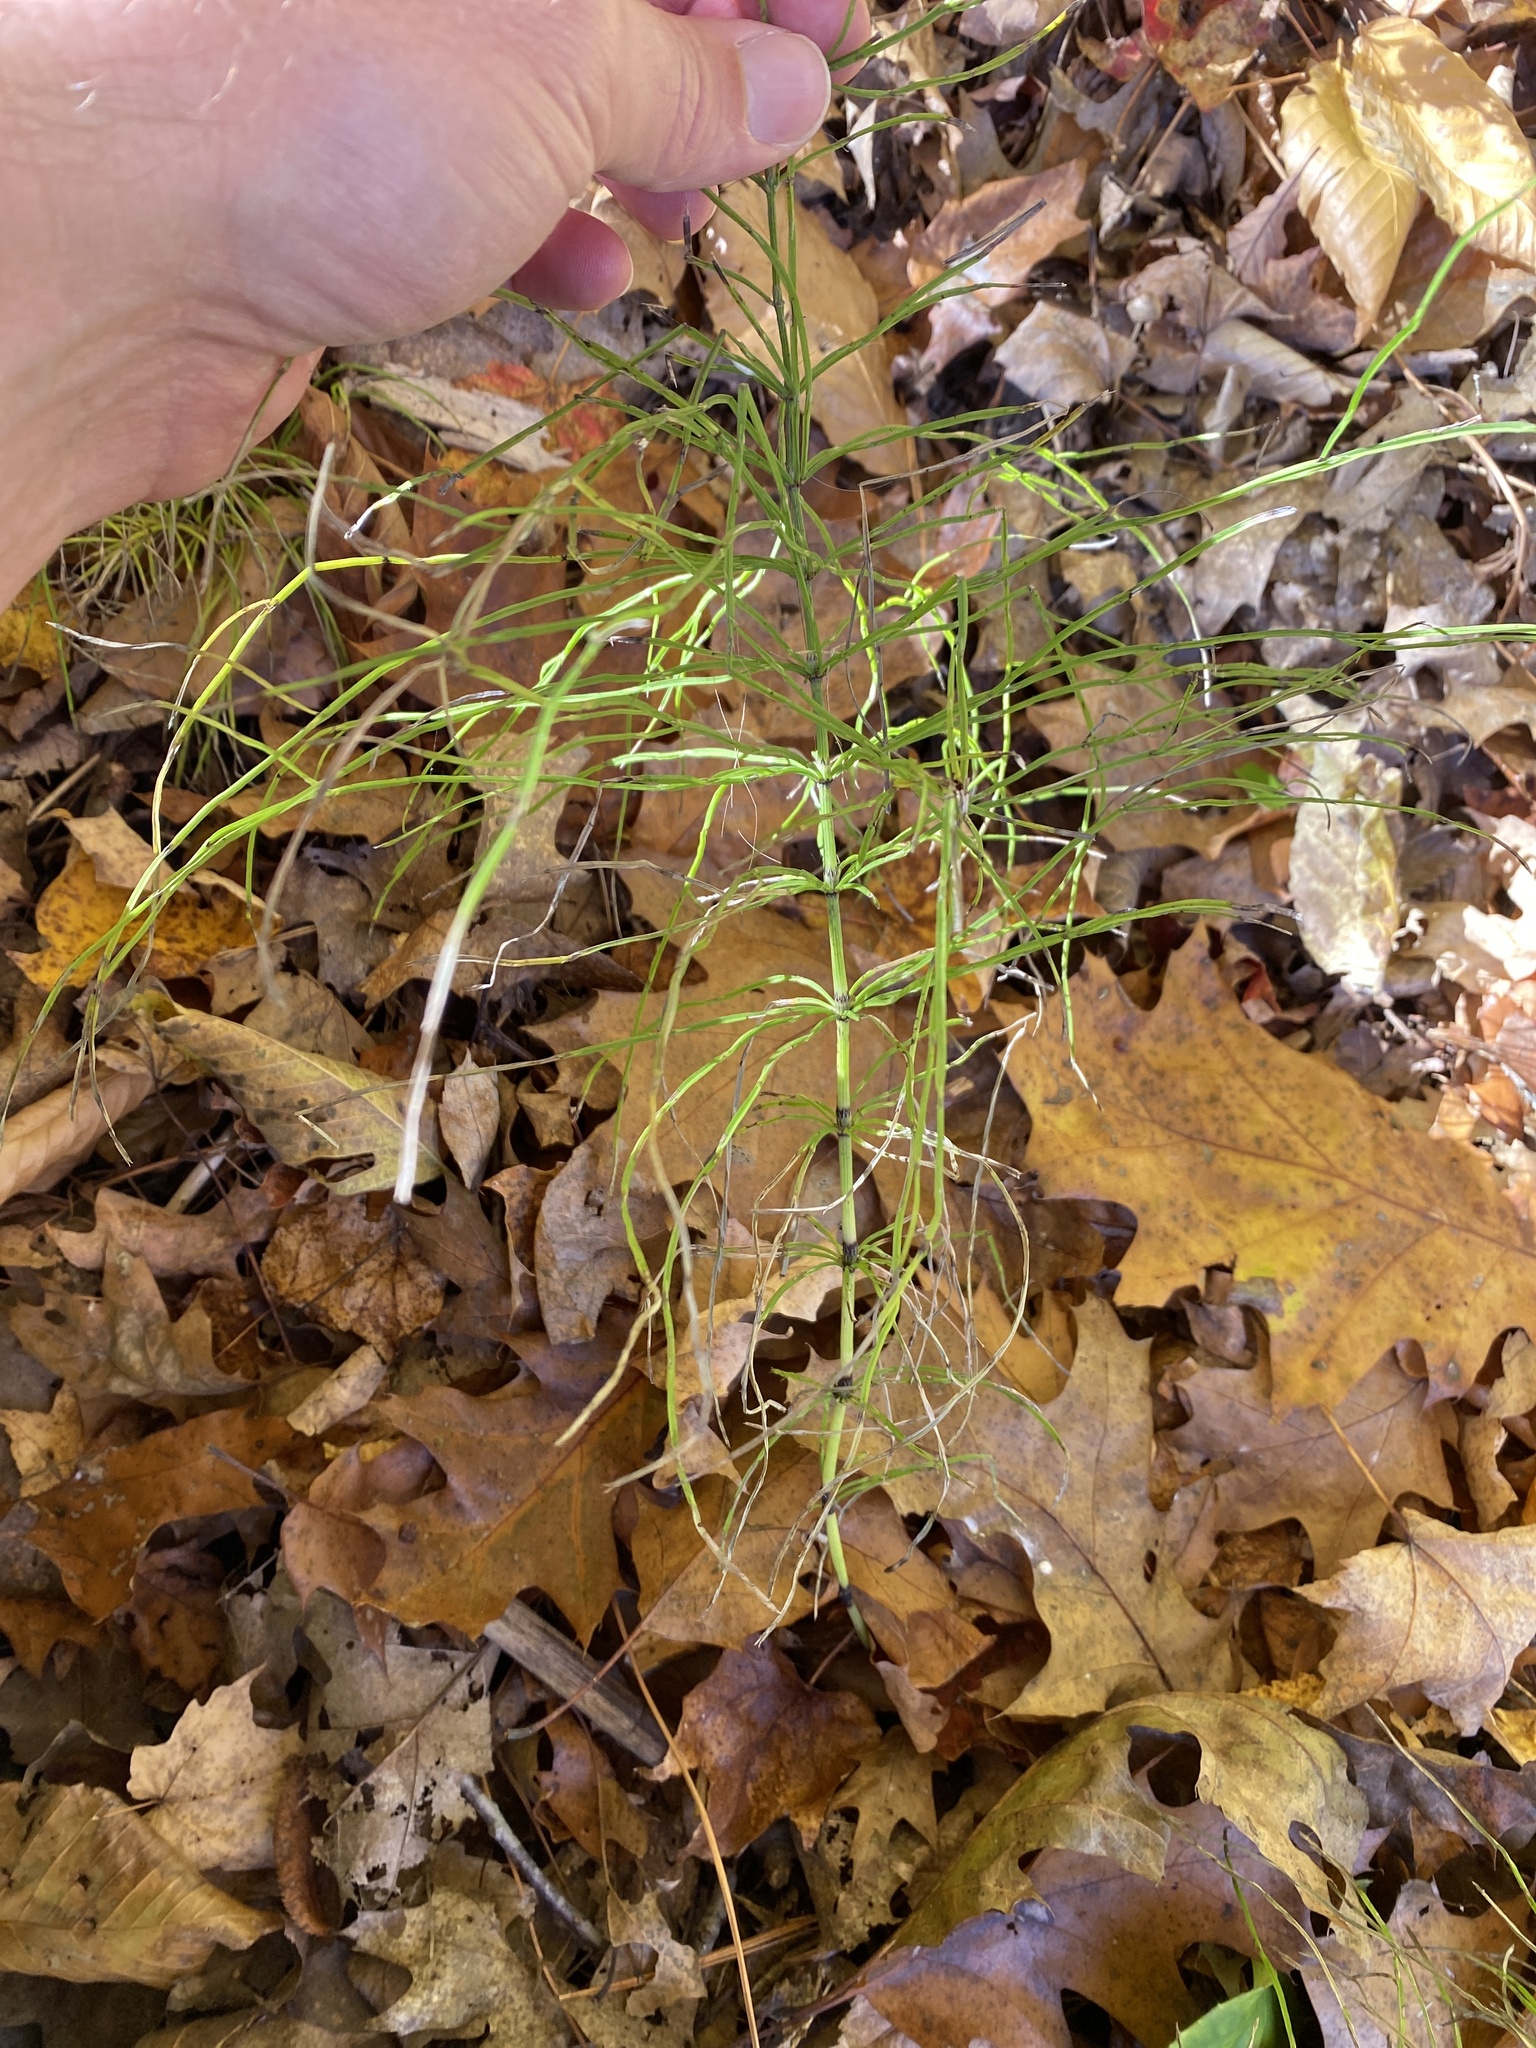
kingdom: Plantae
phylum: Tracheophyta
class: Polypodiopsida
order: Equisetales
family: Equisetaceae
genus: Equisetum
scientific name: Equisetum arvense
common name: Field horsetail
